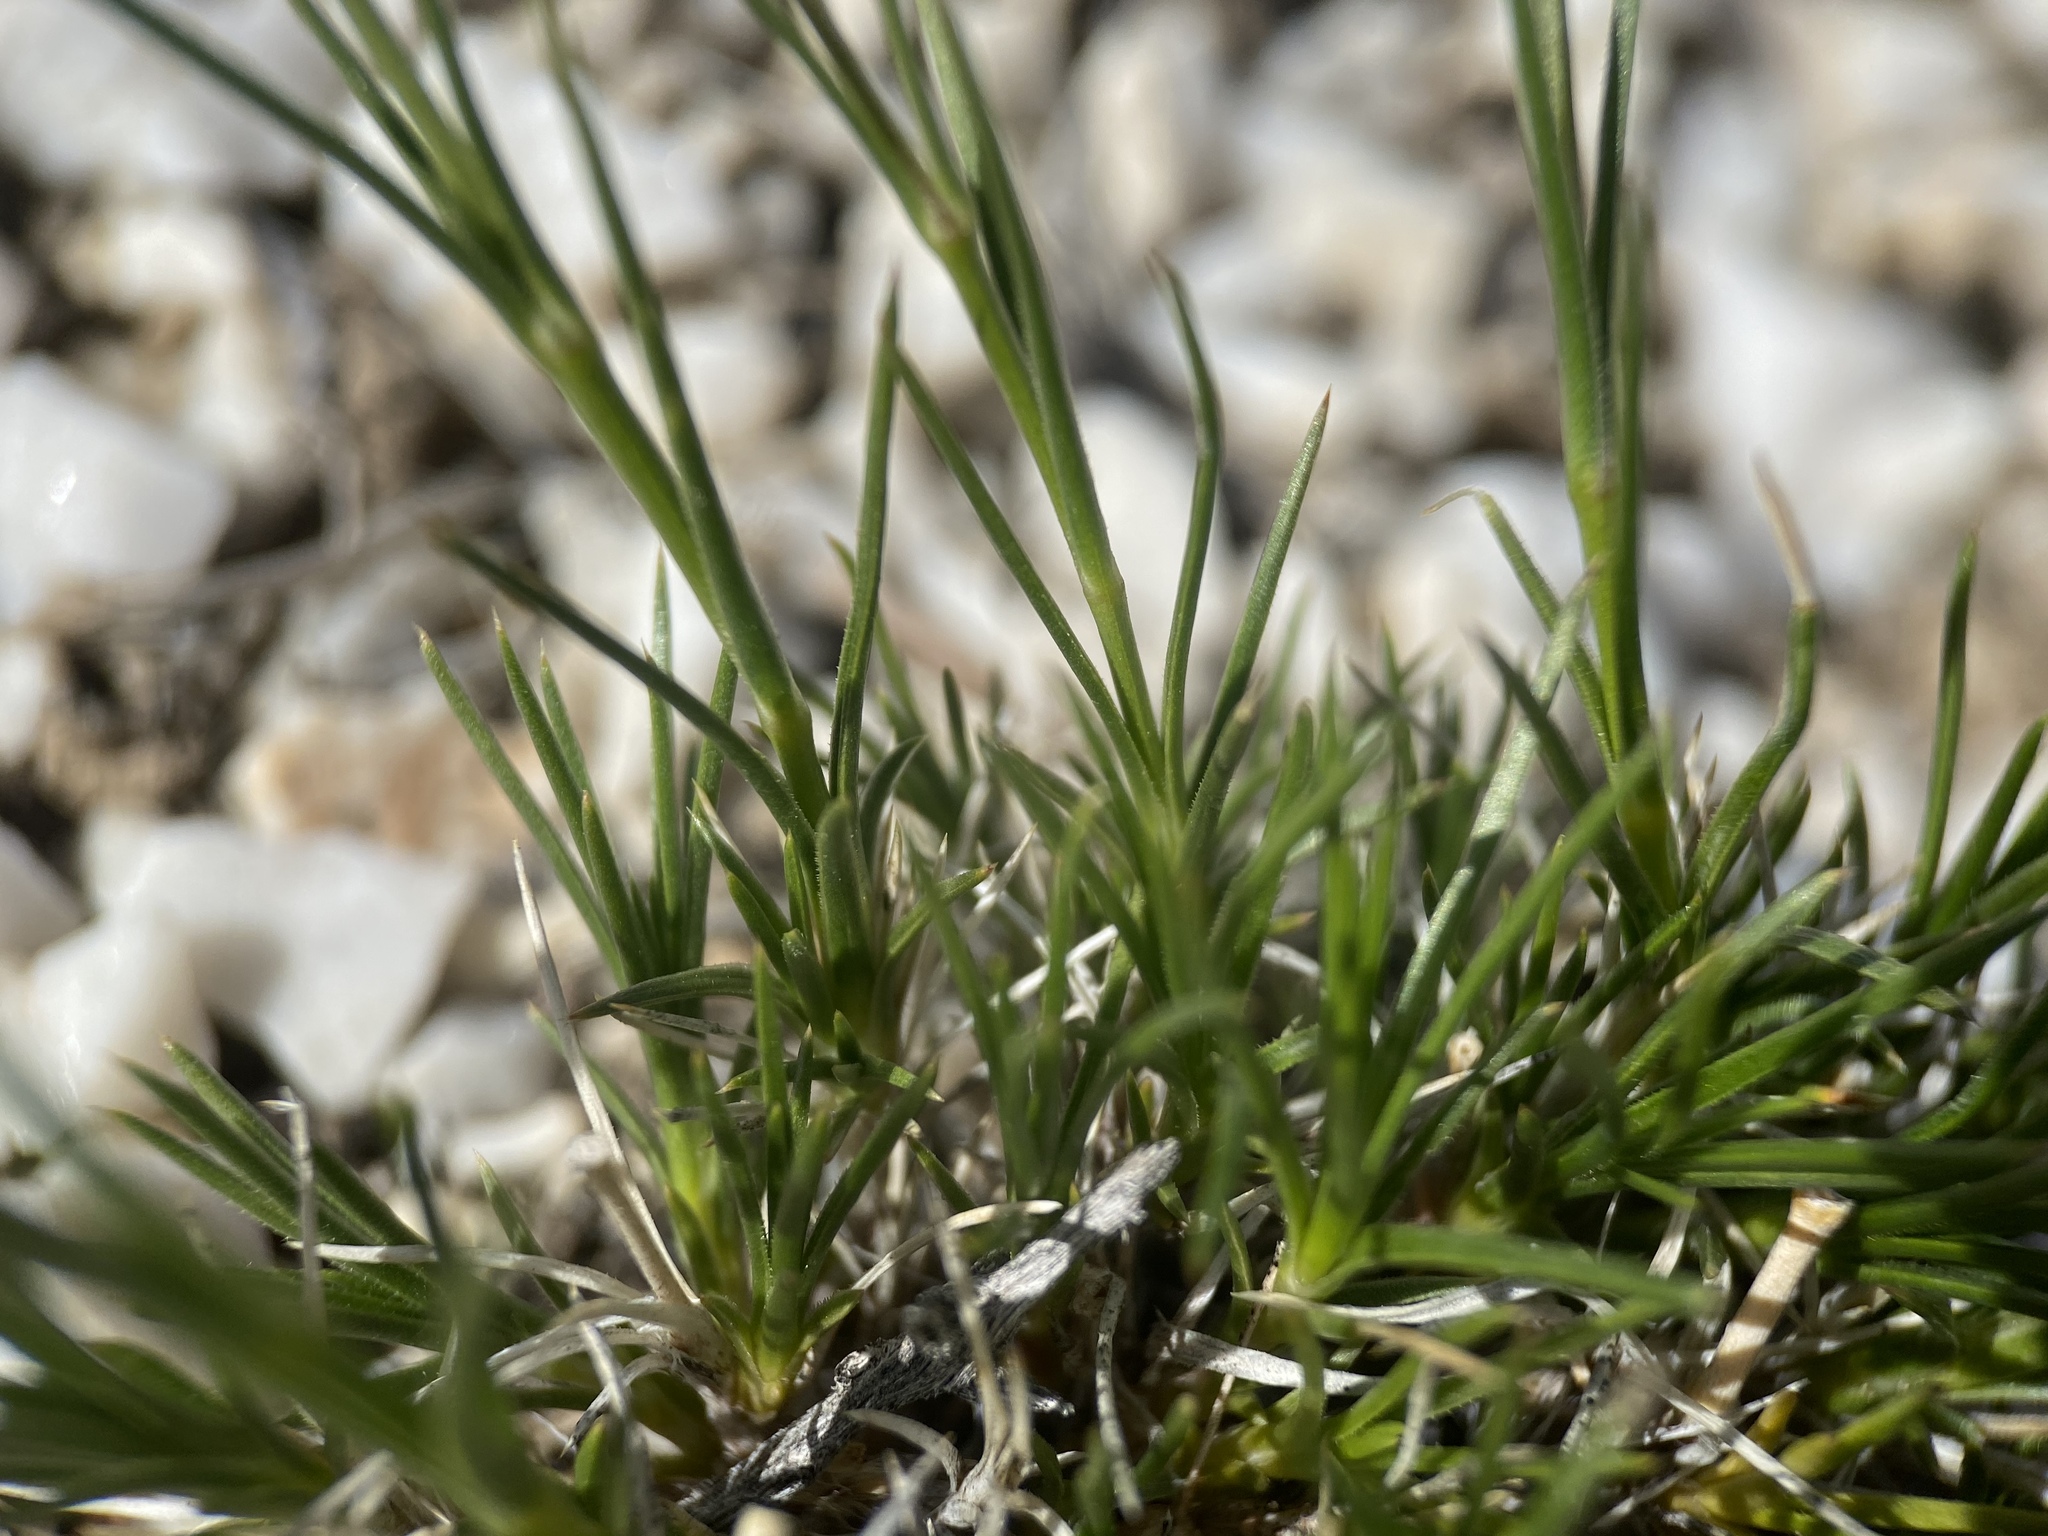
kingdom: Plantae
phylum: Tracheophyta
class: Magnoliopsida
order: Caryophyllales
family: Caryophyllaceae
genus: Eremogone
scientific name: Eremogone kingii
